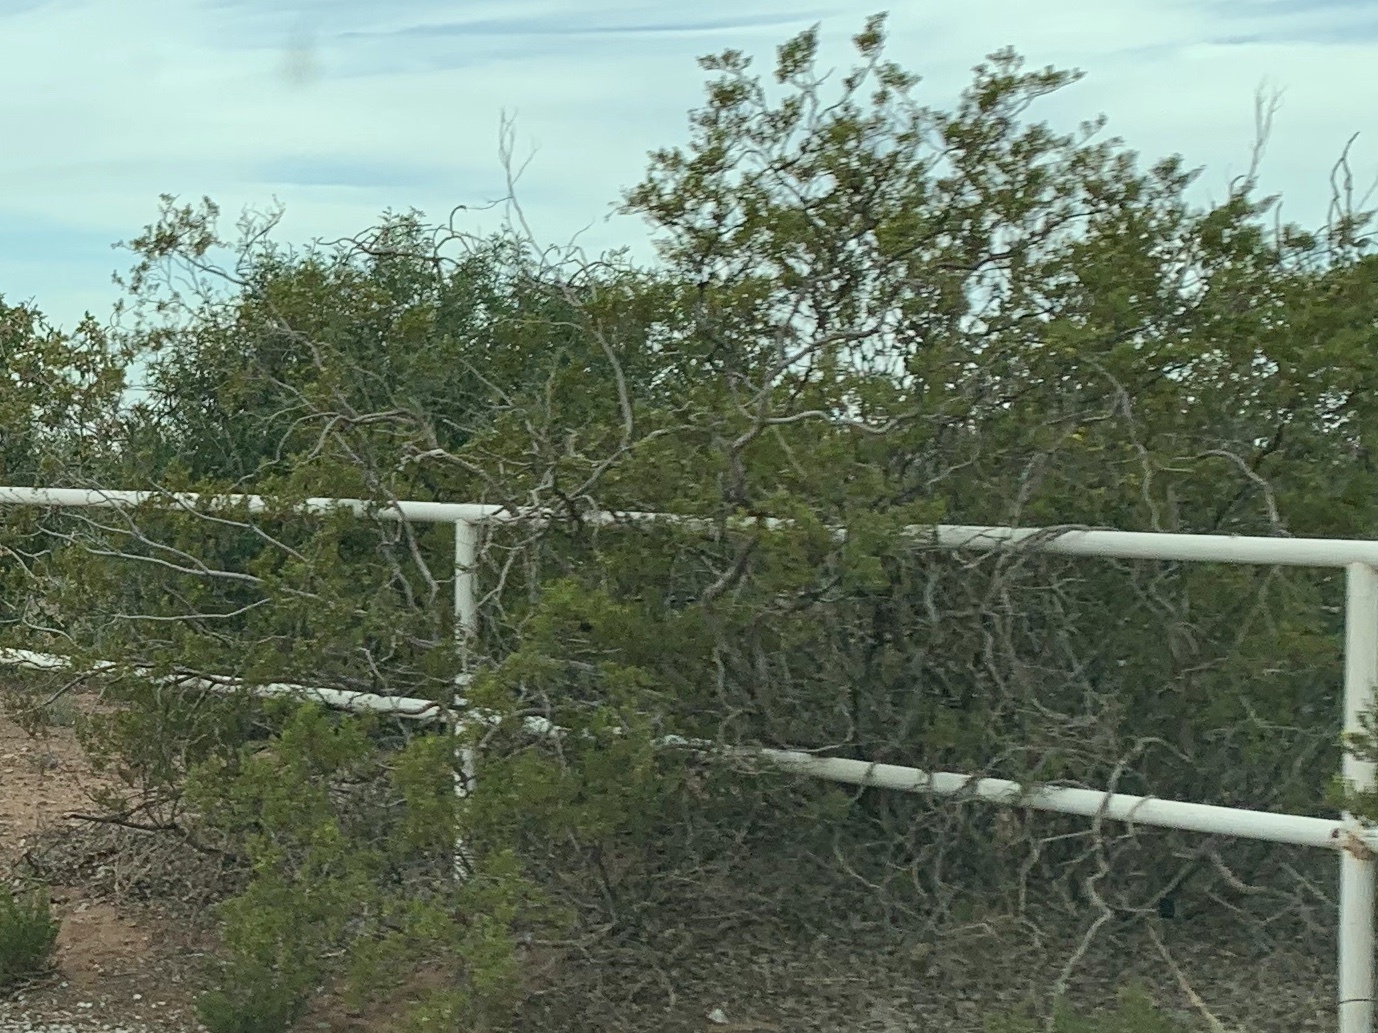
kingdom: Plantae
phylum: Tracheophyta
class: Magnoliopsida
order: Zygophyllales
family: Zygophyllaceae
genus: Larrea
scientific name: Larrea tridentata
